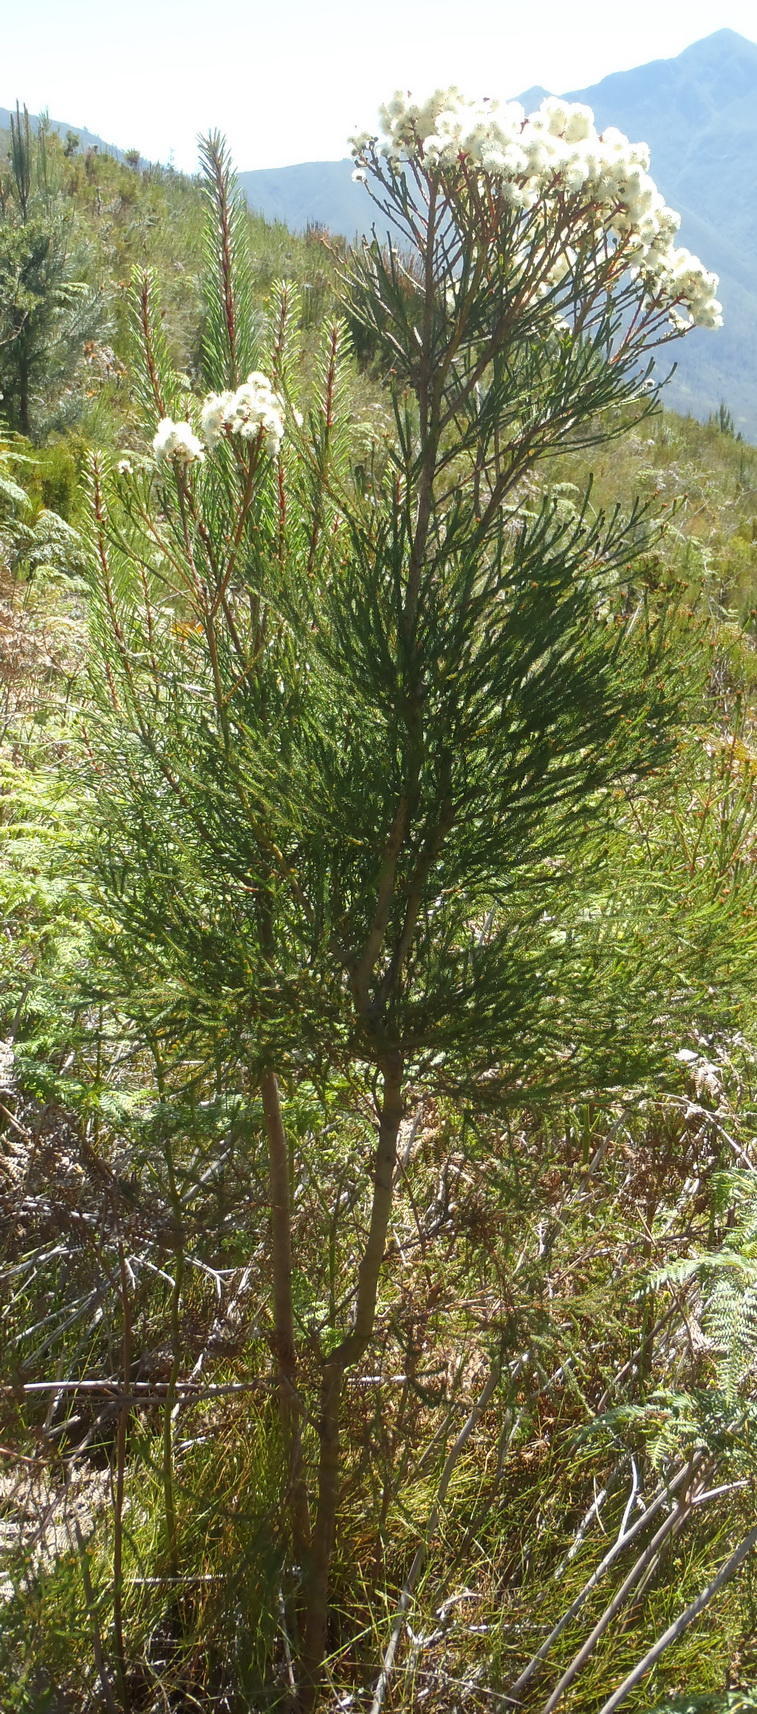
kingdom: Plantae
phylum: Tracheophyta
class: Magnoliopsida
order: Bruniales
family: Bruniaceae
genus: Berzelia
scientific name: Berzelia intermedia
